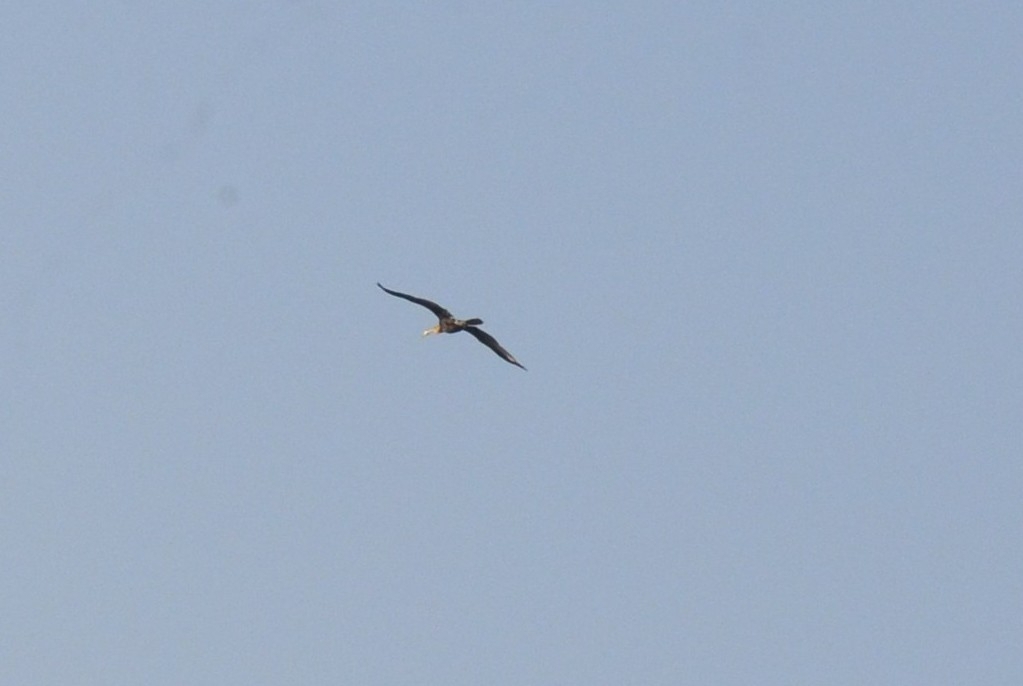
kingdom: Animalia
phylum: Chordata
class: Aves
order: Suliformes
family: Anhingidae
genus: Anhinga
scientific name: Anhinga melanogaster
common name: Oriental darter
